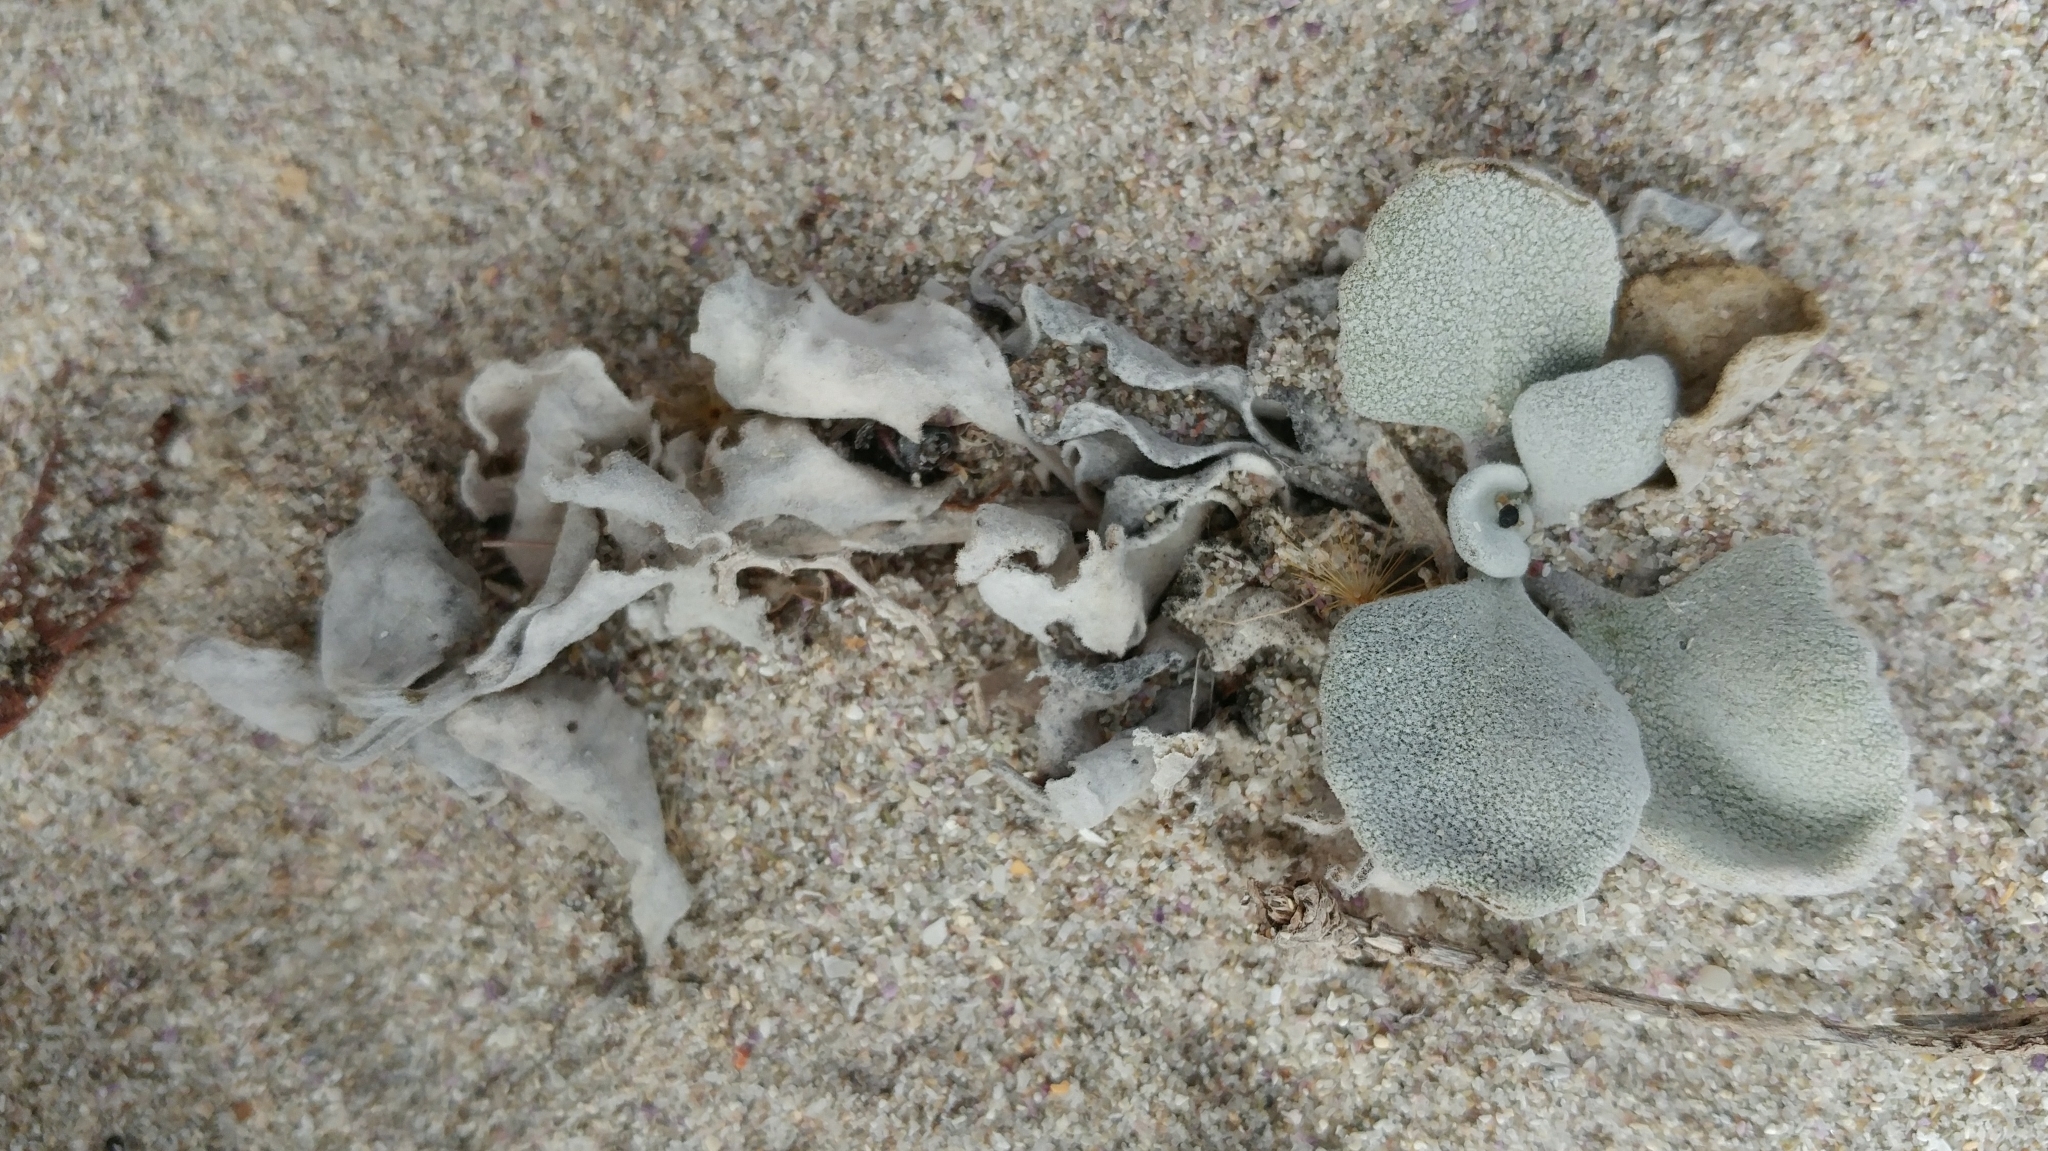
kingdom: Plantae
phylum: Tracheophyta
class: Magnoliopsida
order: Brassicales
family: Brassicaceae
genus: Dithyrea
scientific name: Dithyrea maritima
